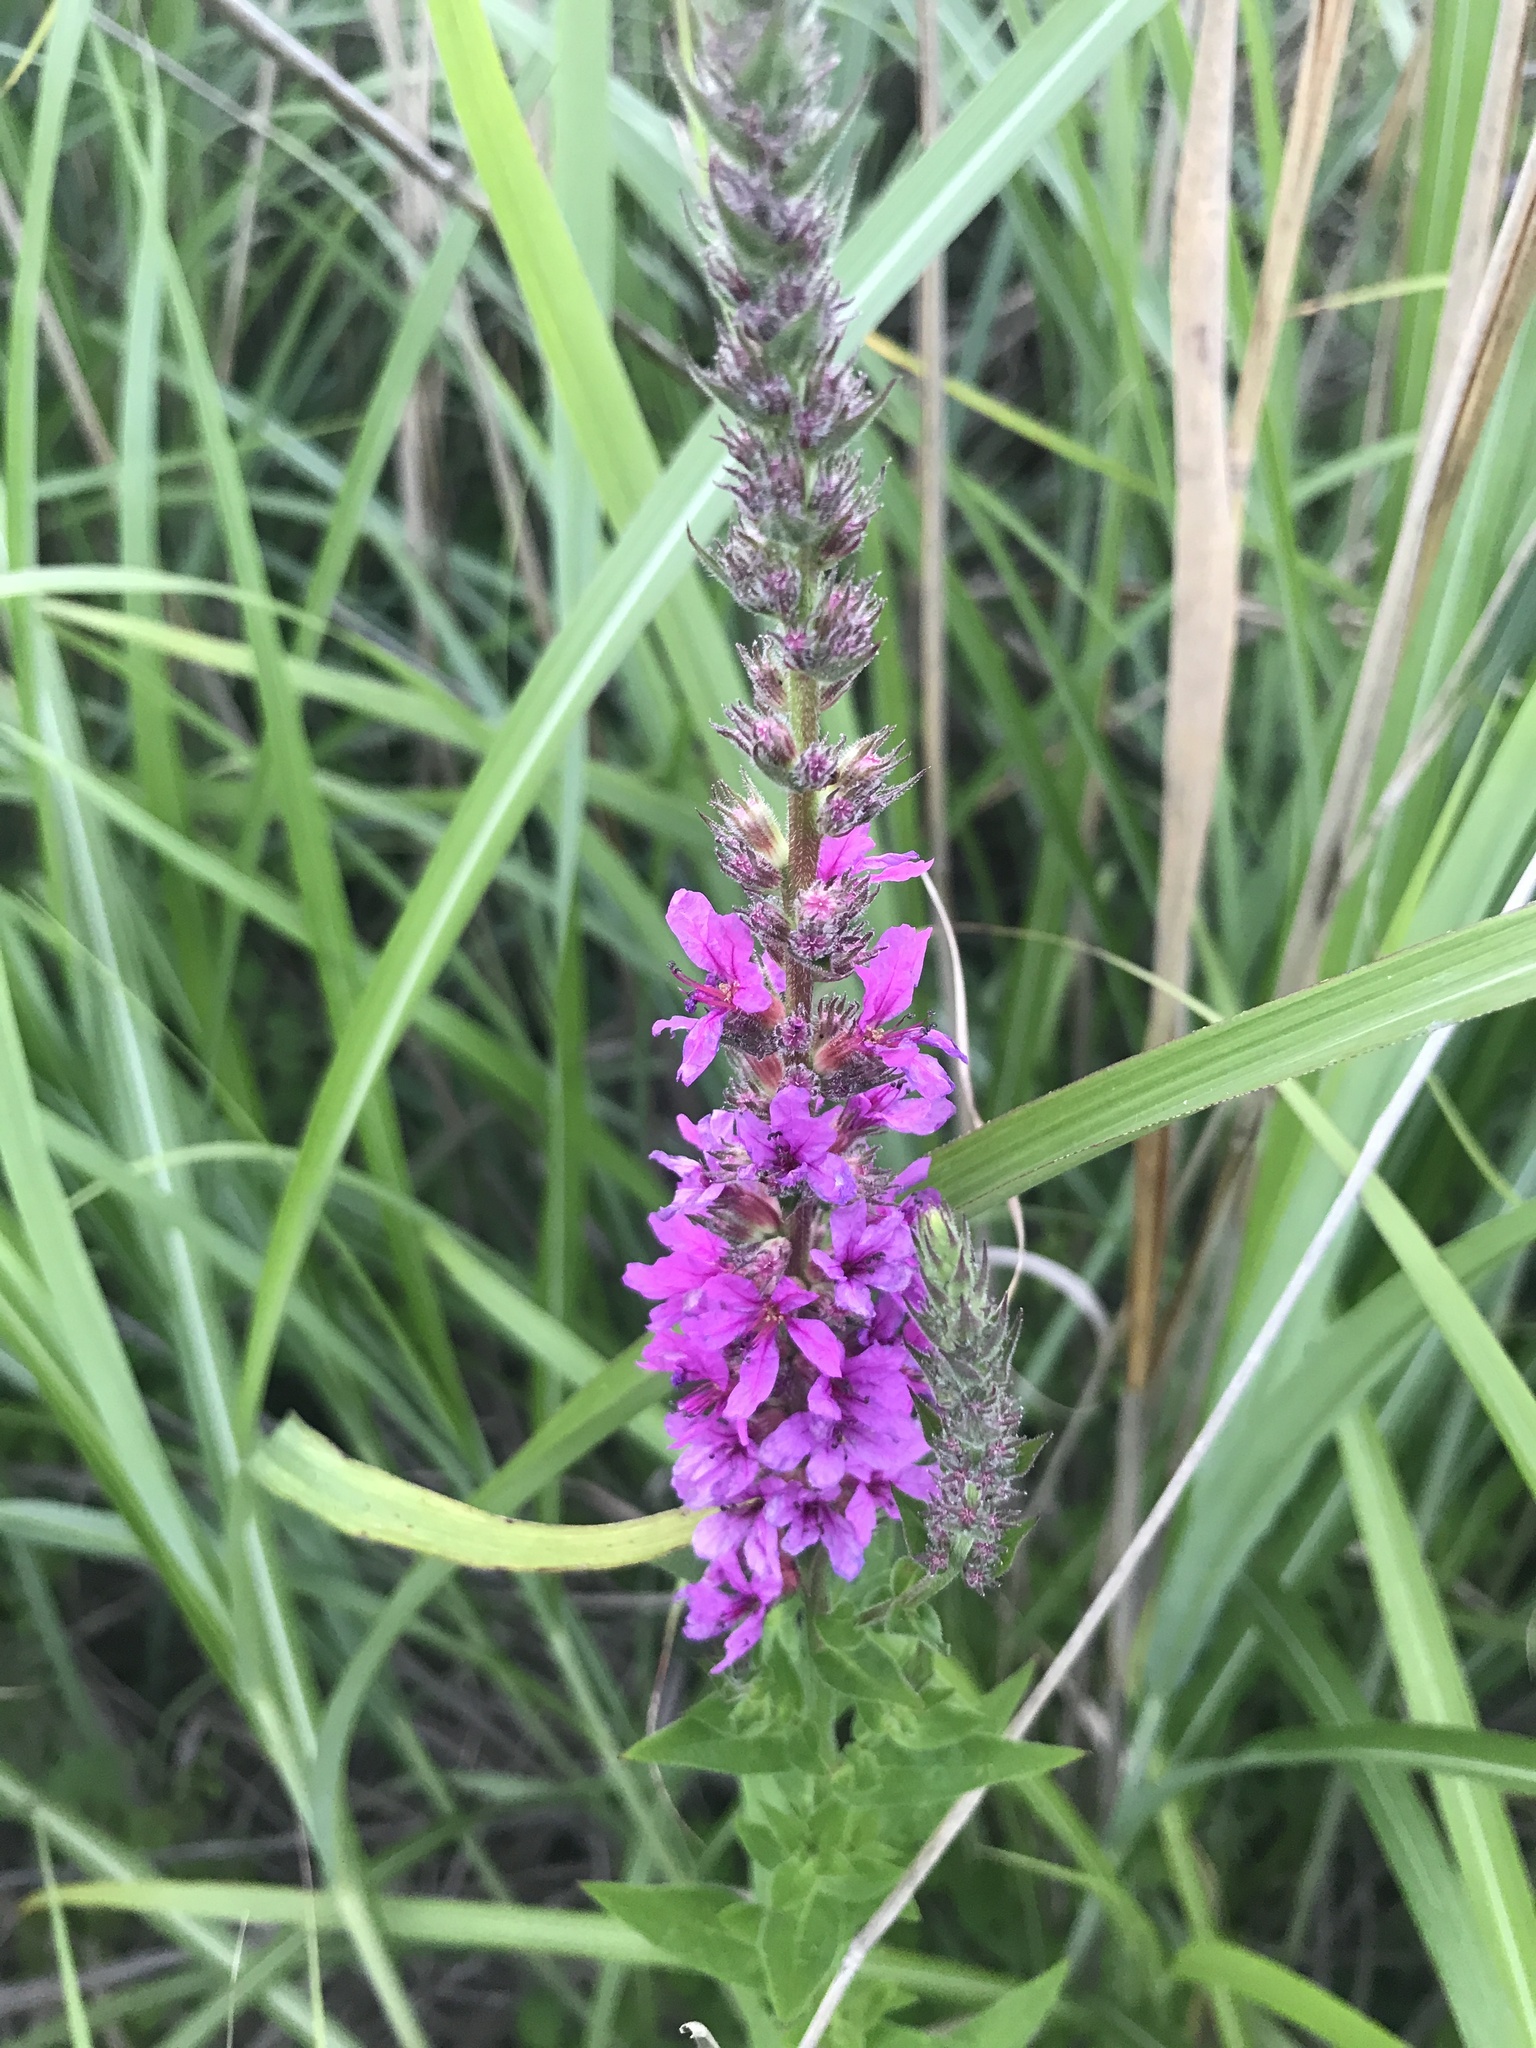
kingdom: Plantae
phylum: Tracheophyta
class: Magnoliopsida
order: Myrtales
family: Lythraceae
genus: Lythrum
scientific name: Lythrum salicaria
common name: Purple loosestrife
